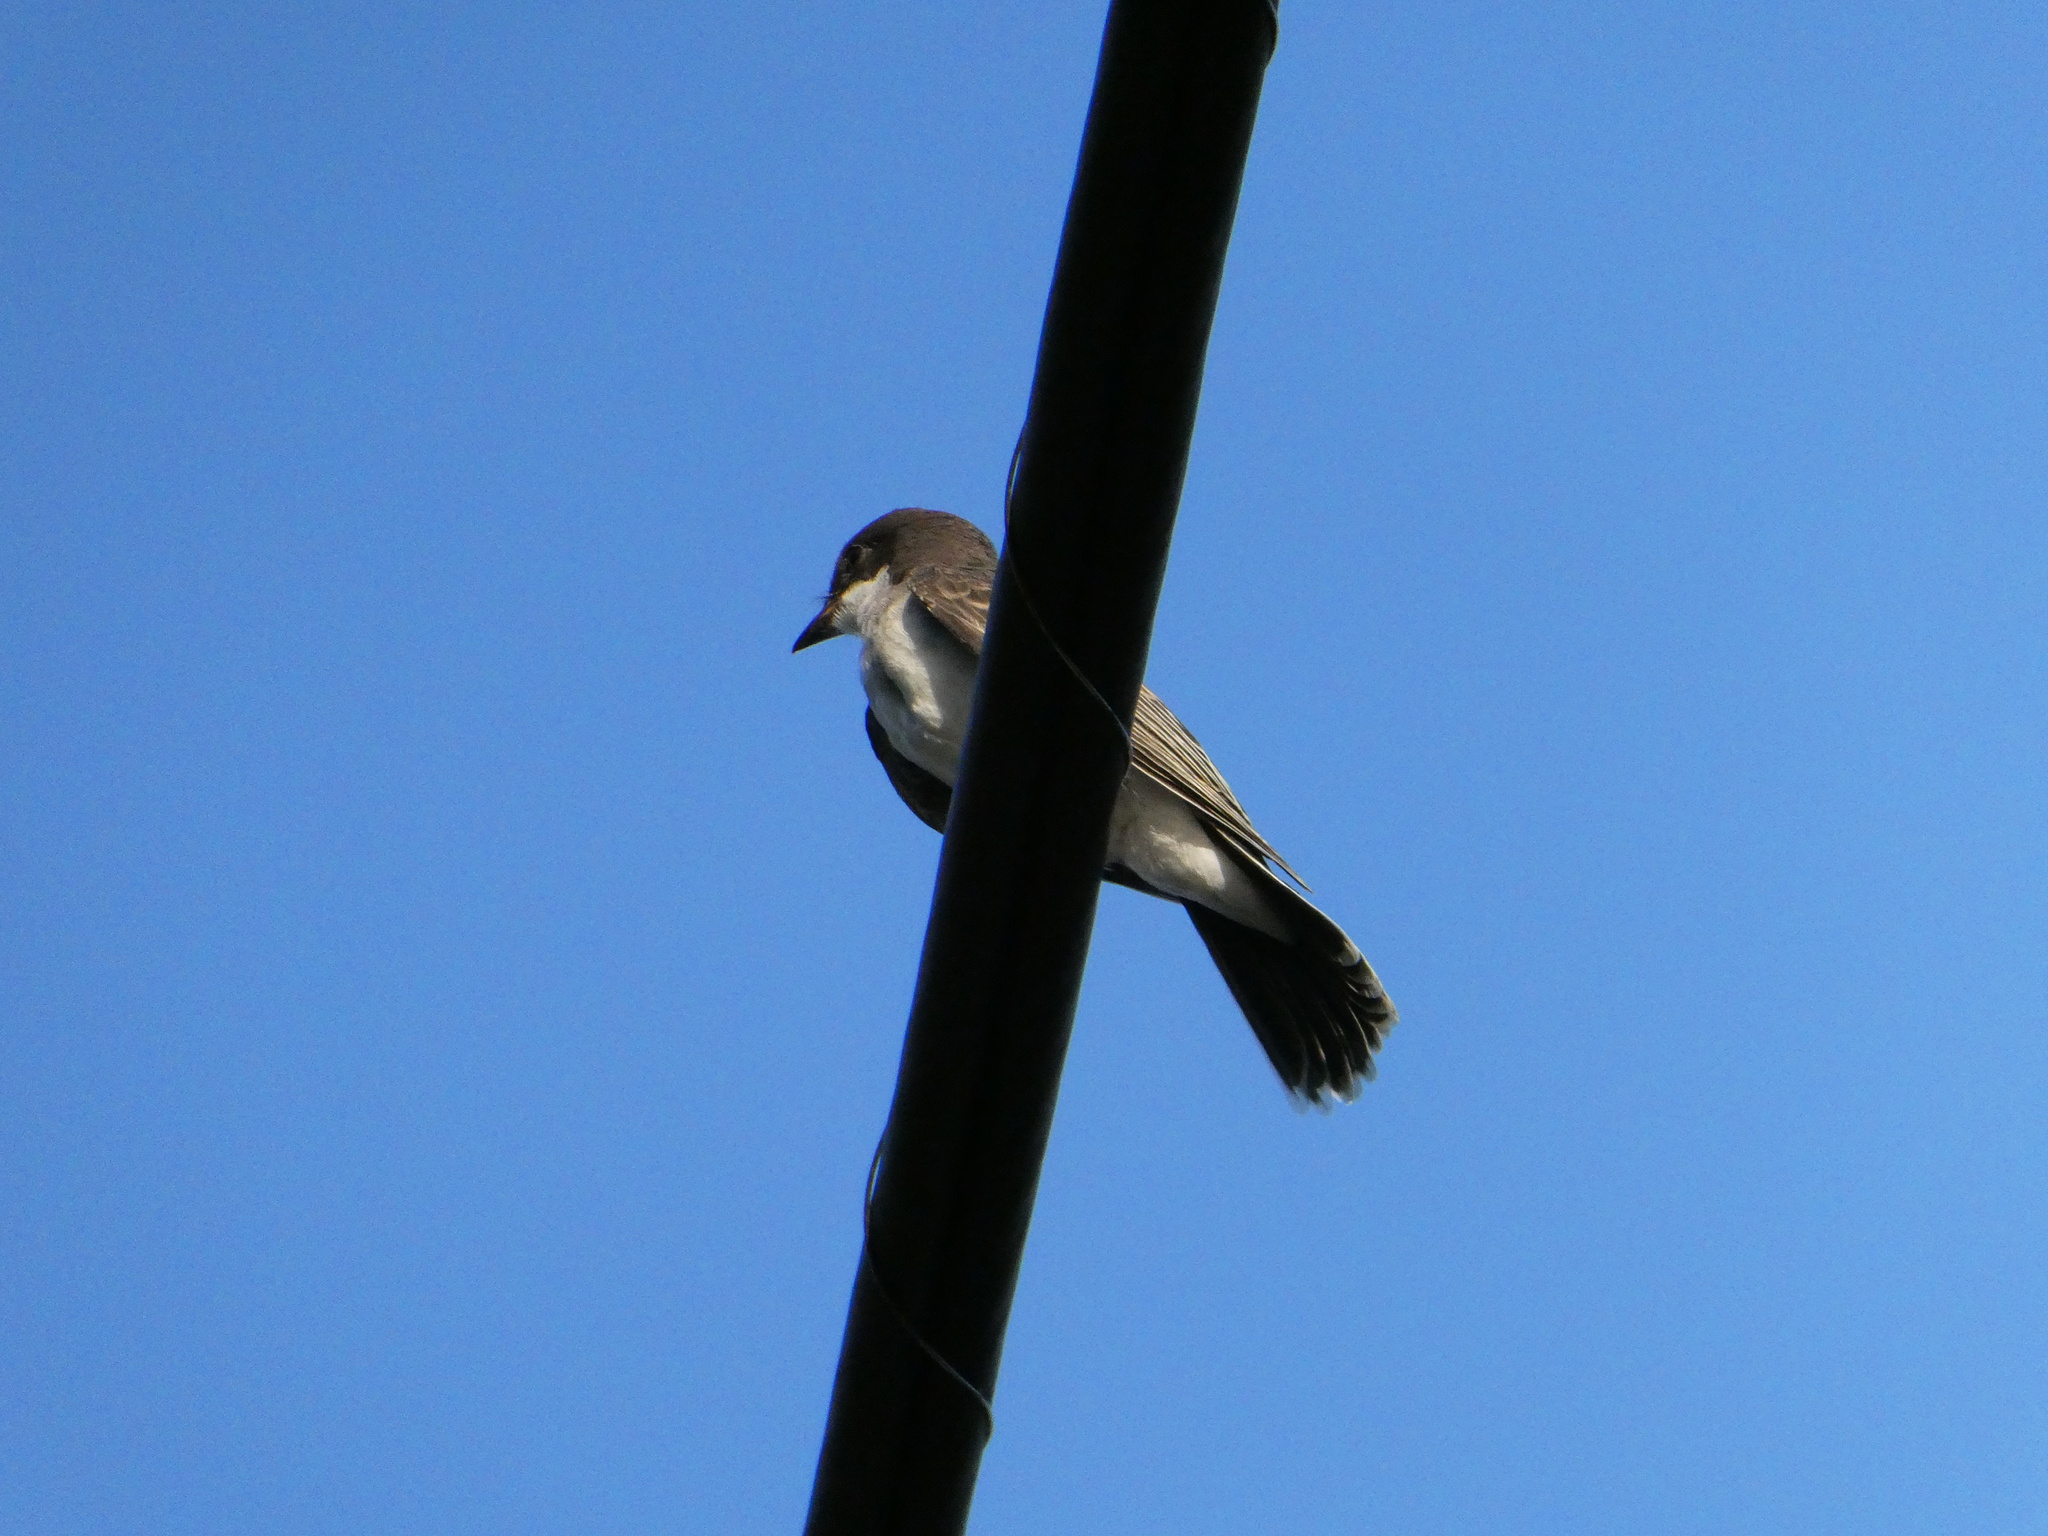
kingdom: Animalia
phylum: Chordata
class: Aves
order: Passeriformes
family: Tyrannidae
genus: Tyrannus
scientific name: Tyrannus tyrannus
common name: Eastern kingbird
